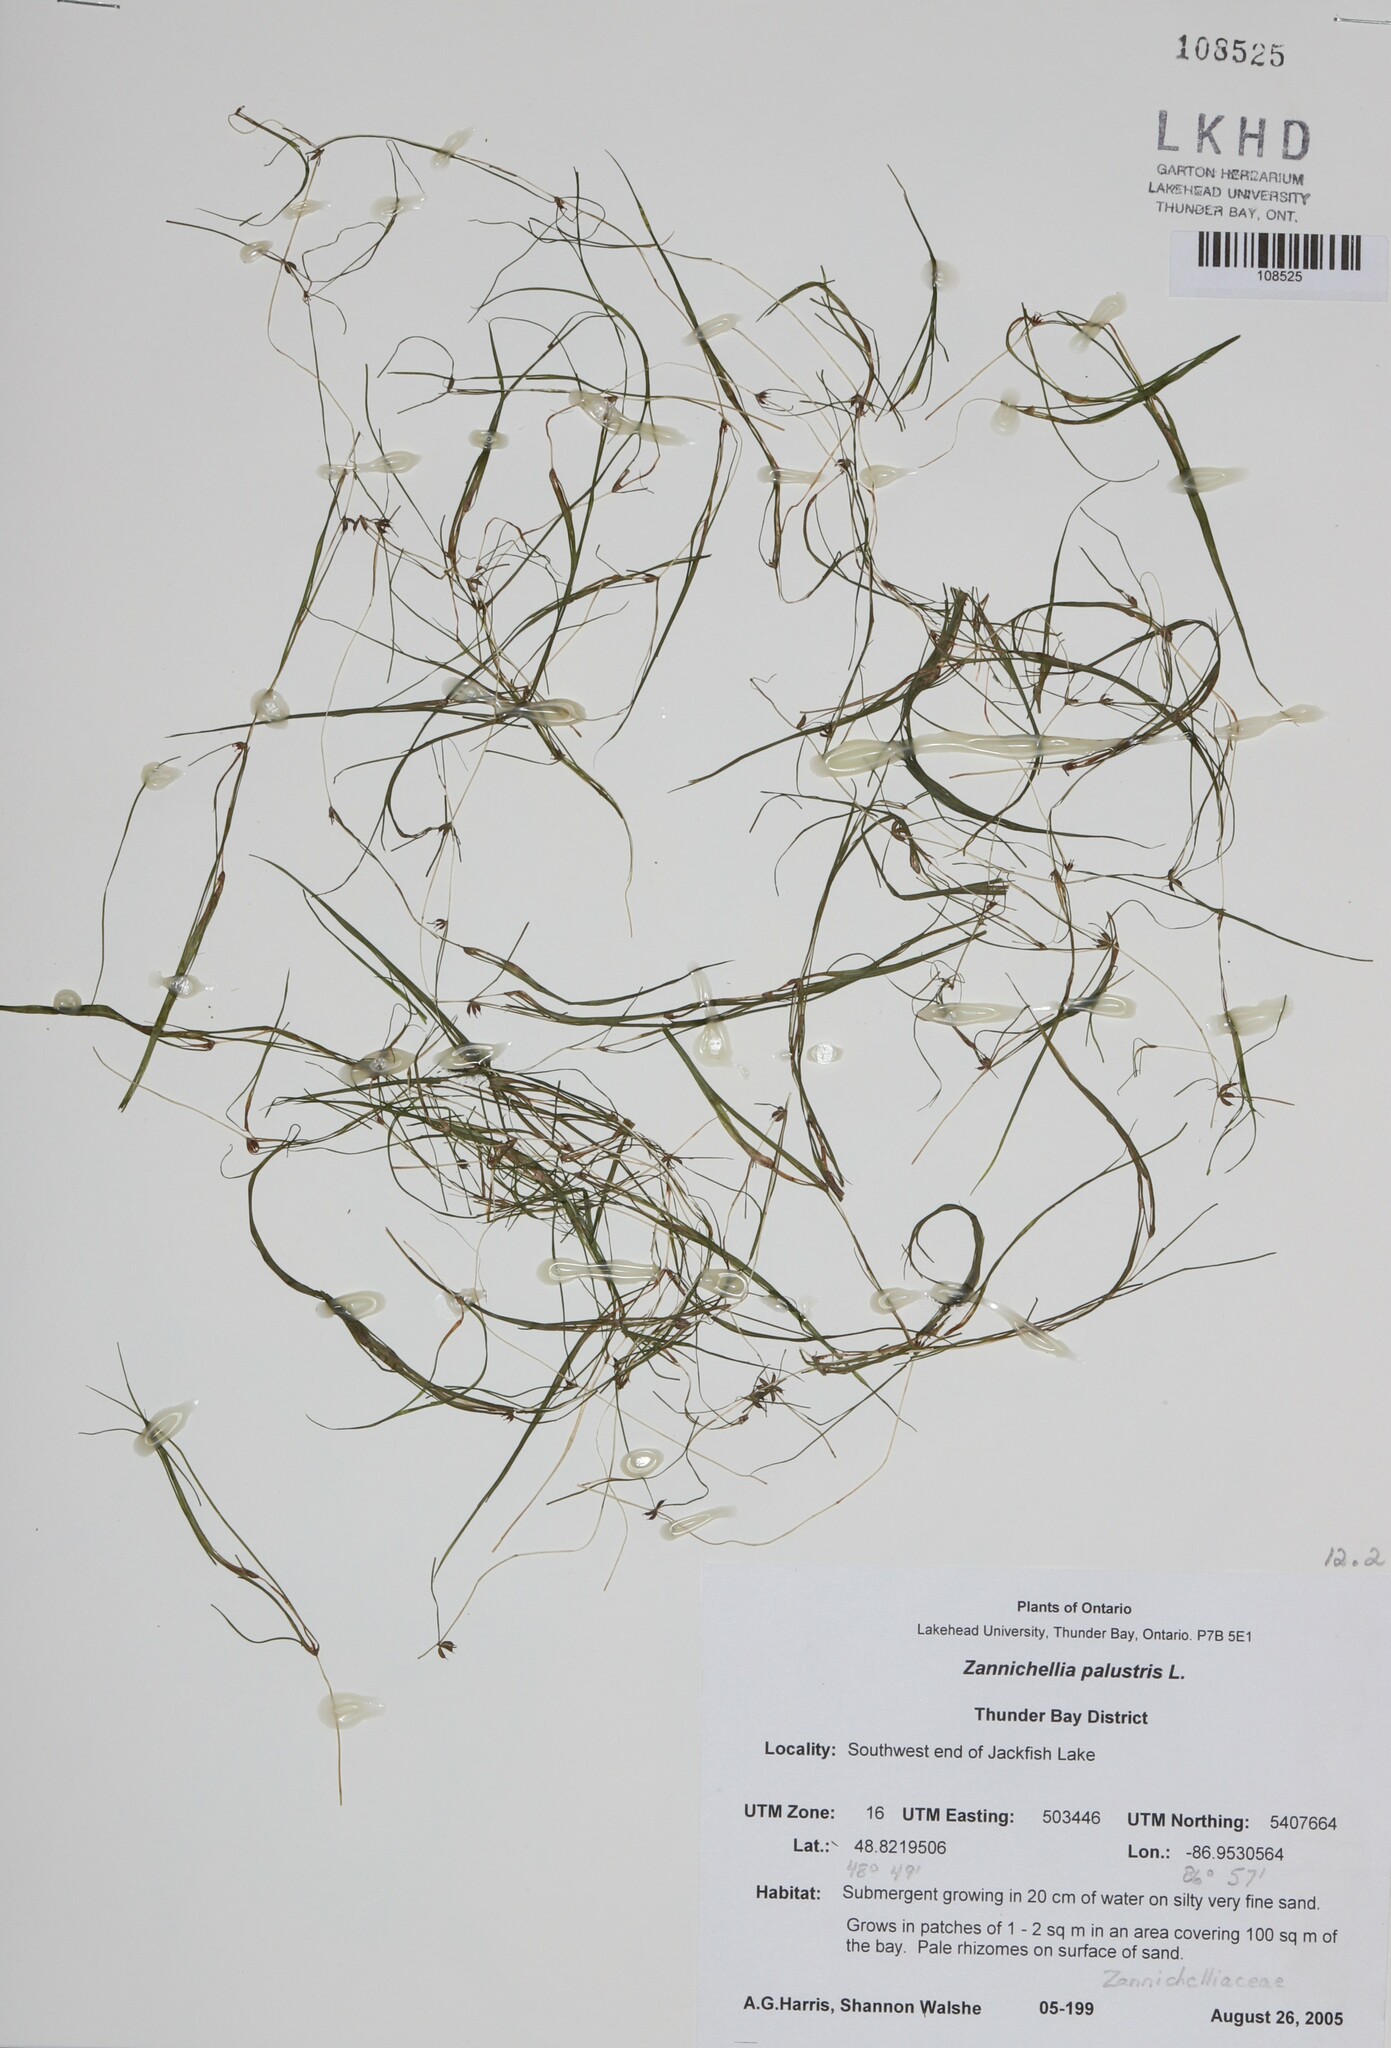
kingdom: Plantae
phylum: Tracheophyta
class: Liliopsida
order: Alismatales
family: Potamogetonaceae
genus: Zannichellia
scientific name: Zannichellia palustris
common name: Horned pondweed
